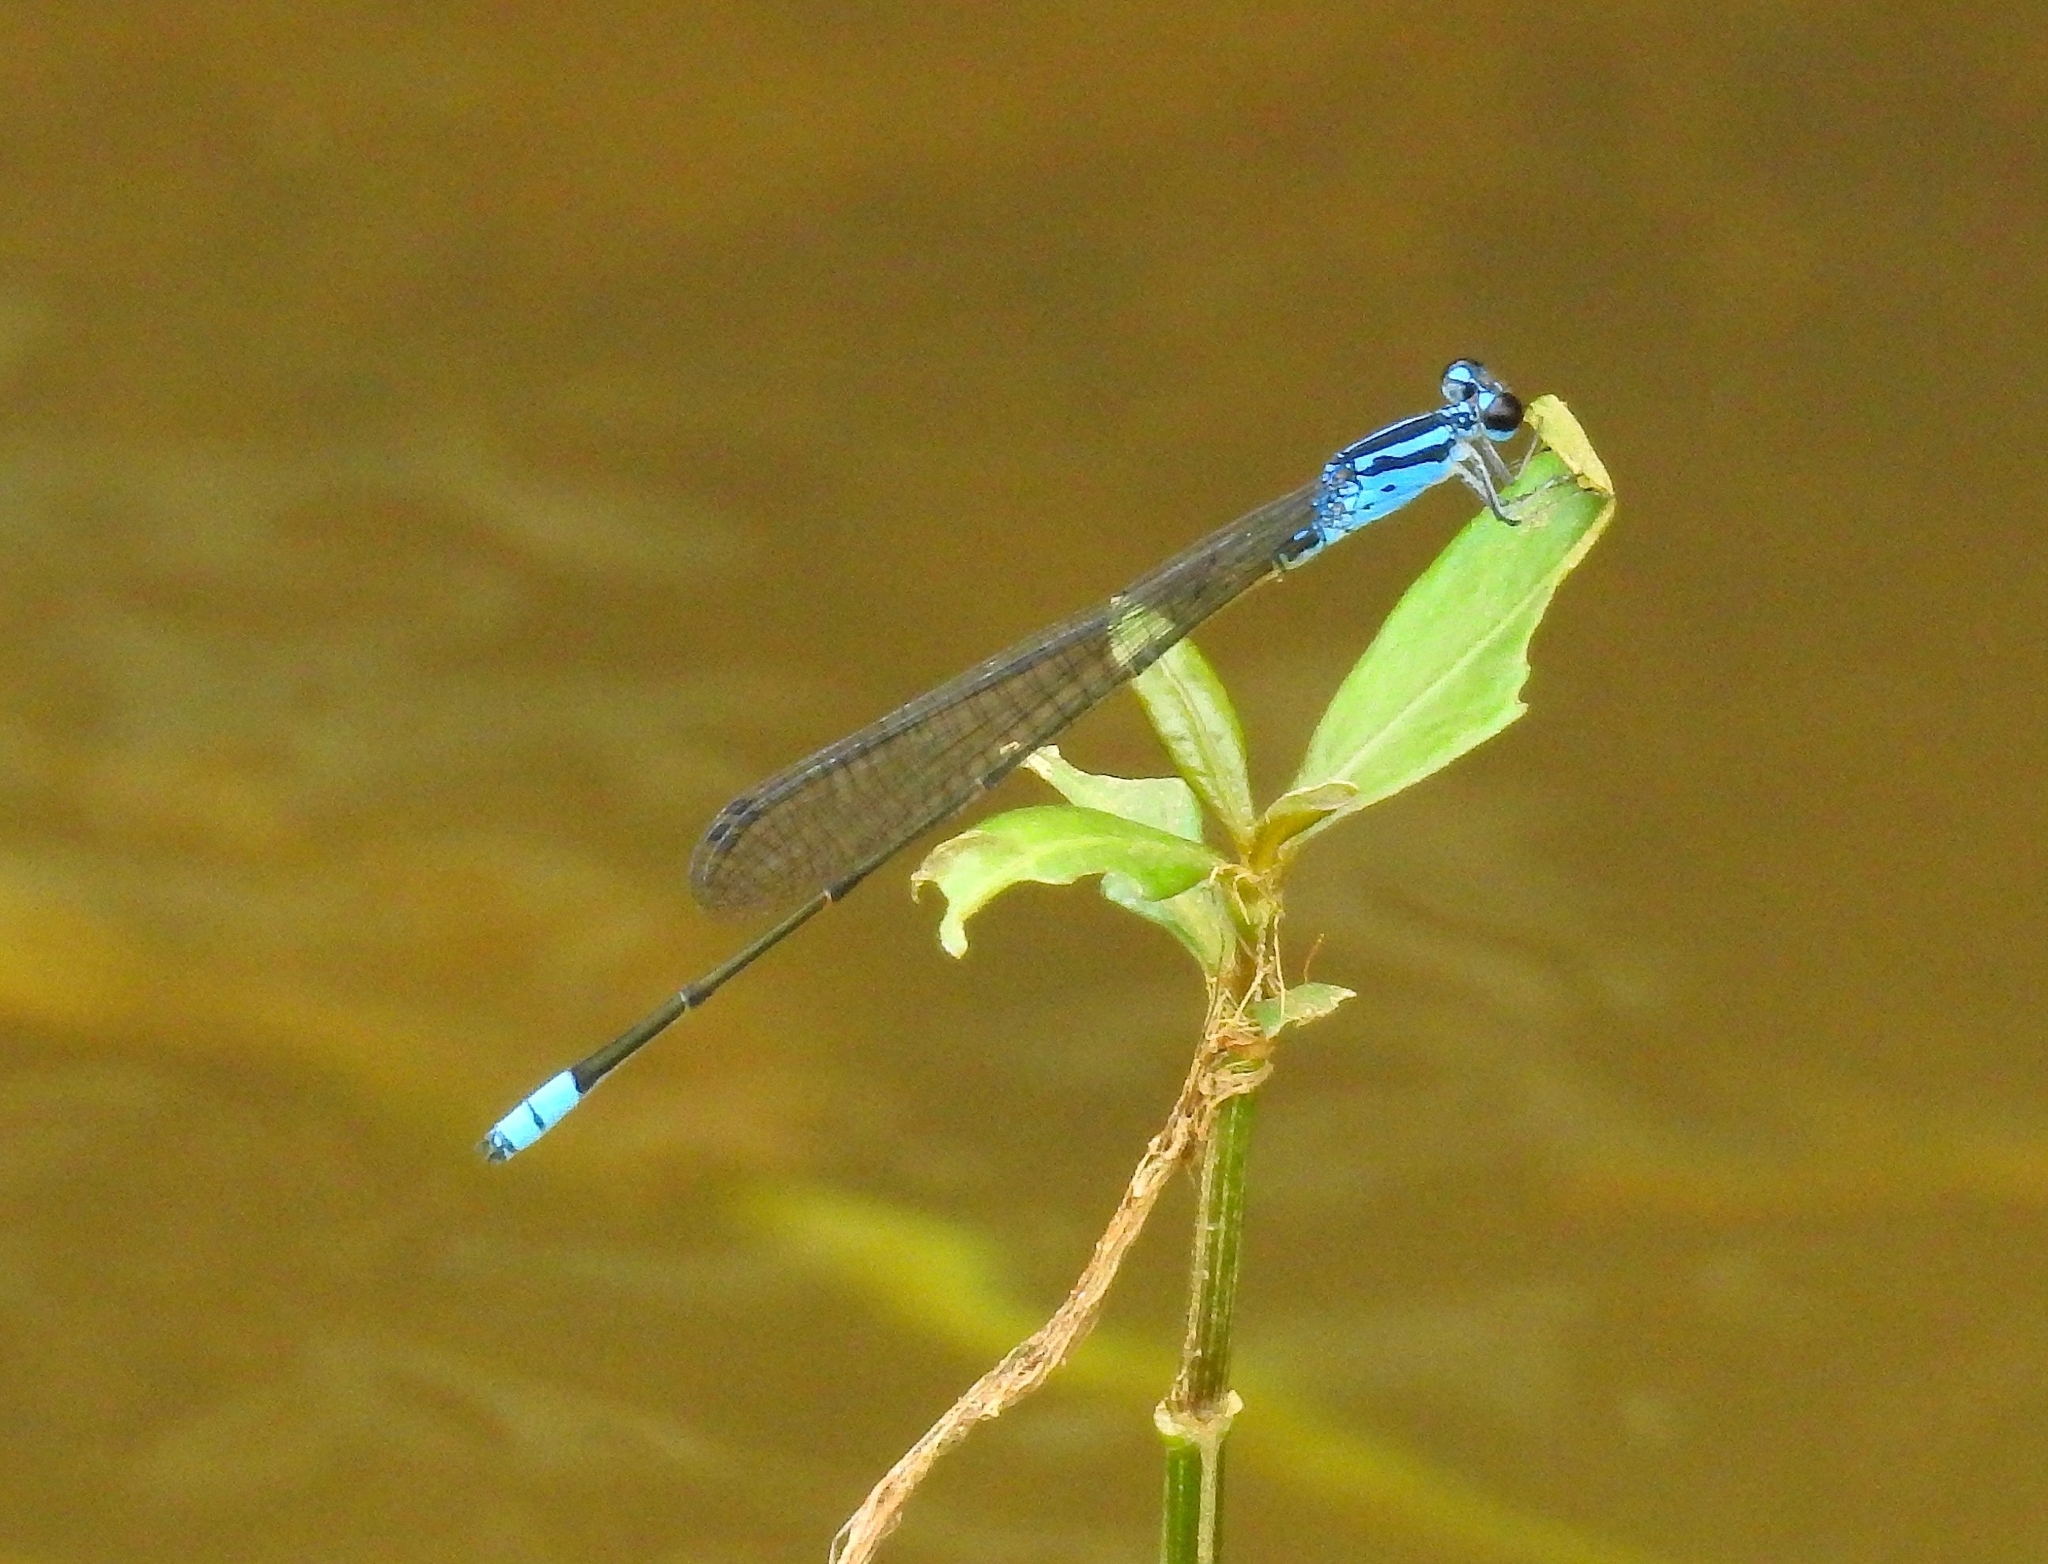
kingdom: Animalia
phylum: Arthropoda
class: Insecta
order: Odonata
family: Coenagrionidae
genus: Archibasis
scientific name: Archibasis oscillans
